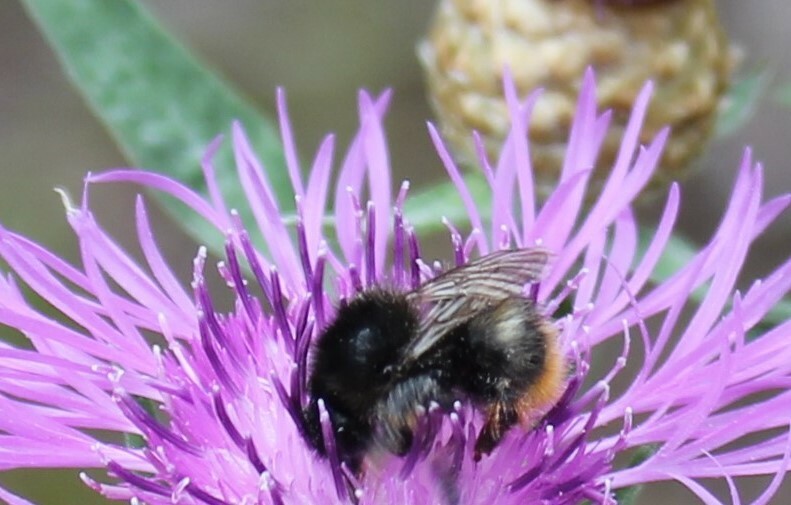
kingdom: Animalia
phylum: Arthropoda
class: Insecta
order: Hymenoptera
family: Apidae
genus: Bombus
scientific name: Bombus ruderarius
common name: Red-shanked carder-bee
